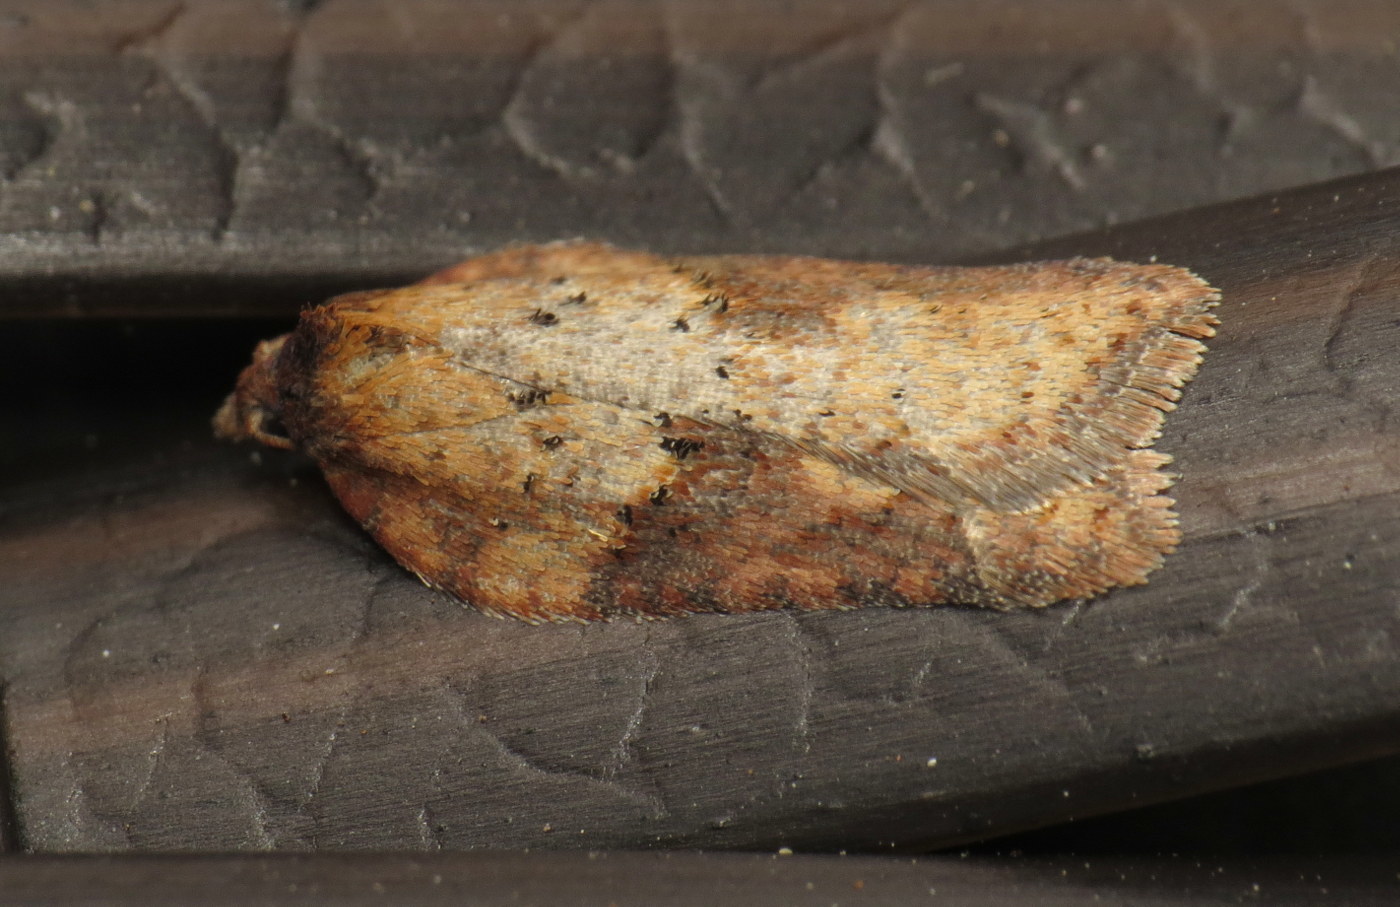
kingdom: Animalia
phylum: Arthropoda
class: Insecta
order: Lepidoptera
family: Tortricidae
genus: Acleris
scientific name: Acleris schalleriana
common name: Viburnum button
